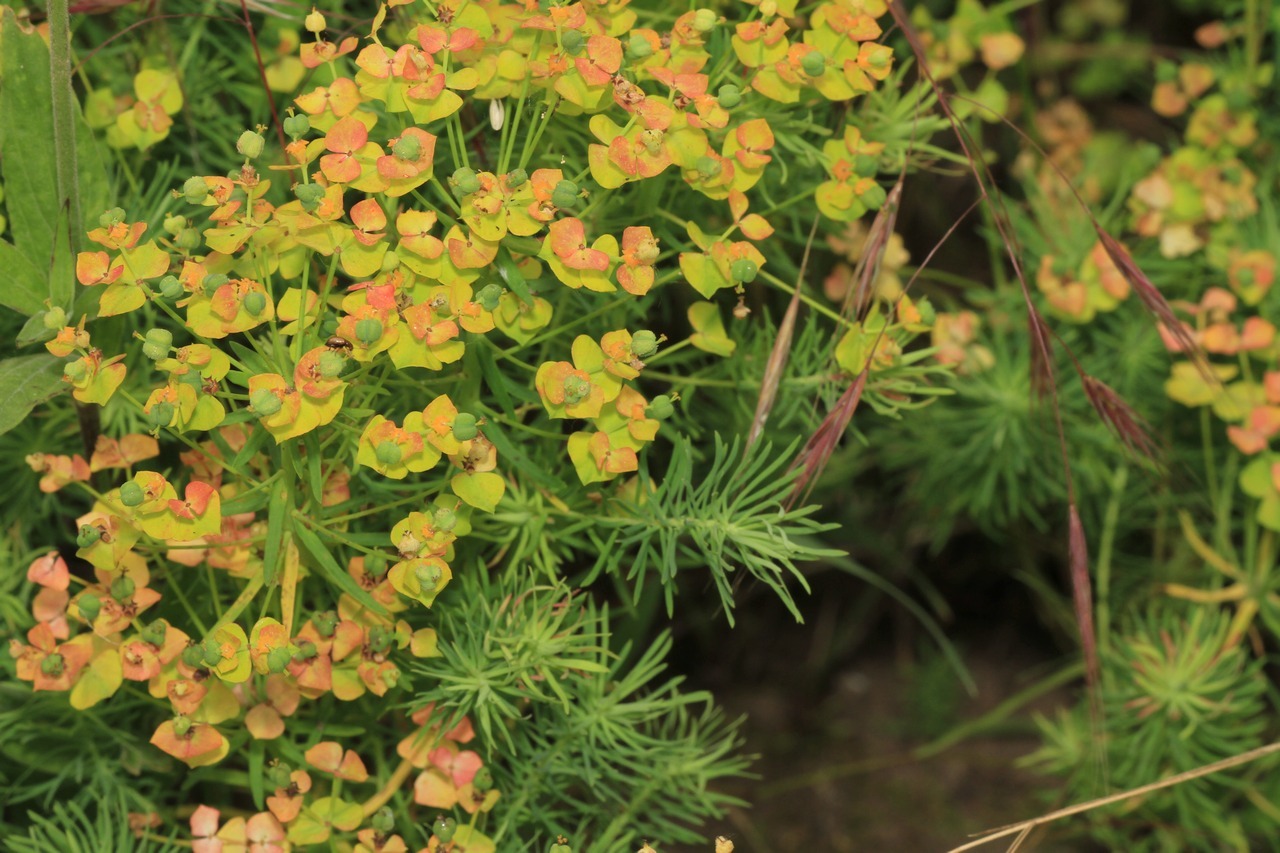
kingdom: Plantae
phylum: Tracheophyta
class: Magnoliopsida
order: Malpighiales
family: Euphorbiaceae
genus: Euphorbia
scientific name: Euphorbia cyparissias
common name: Cypress spurge
